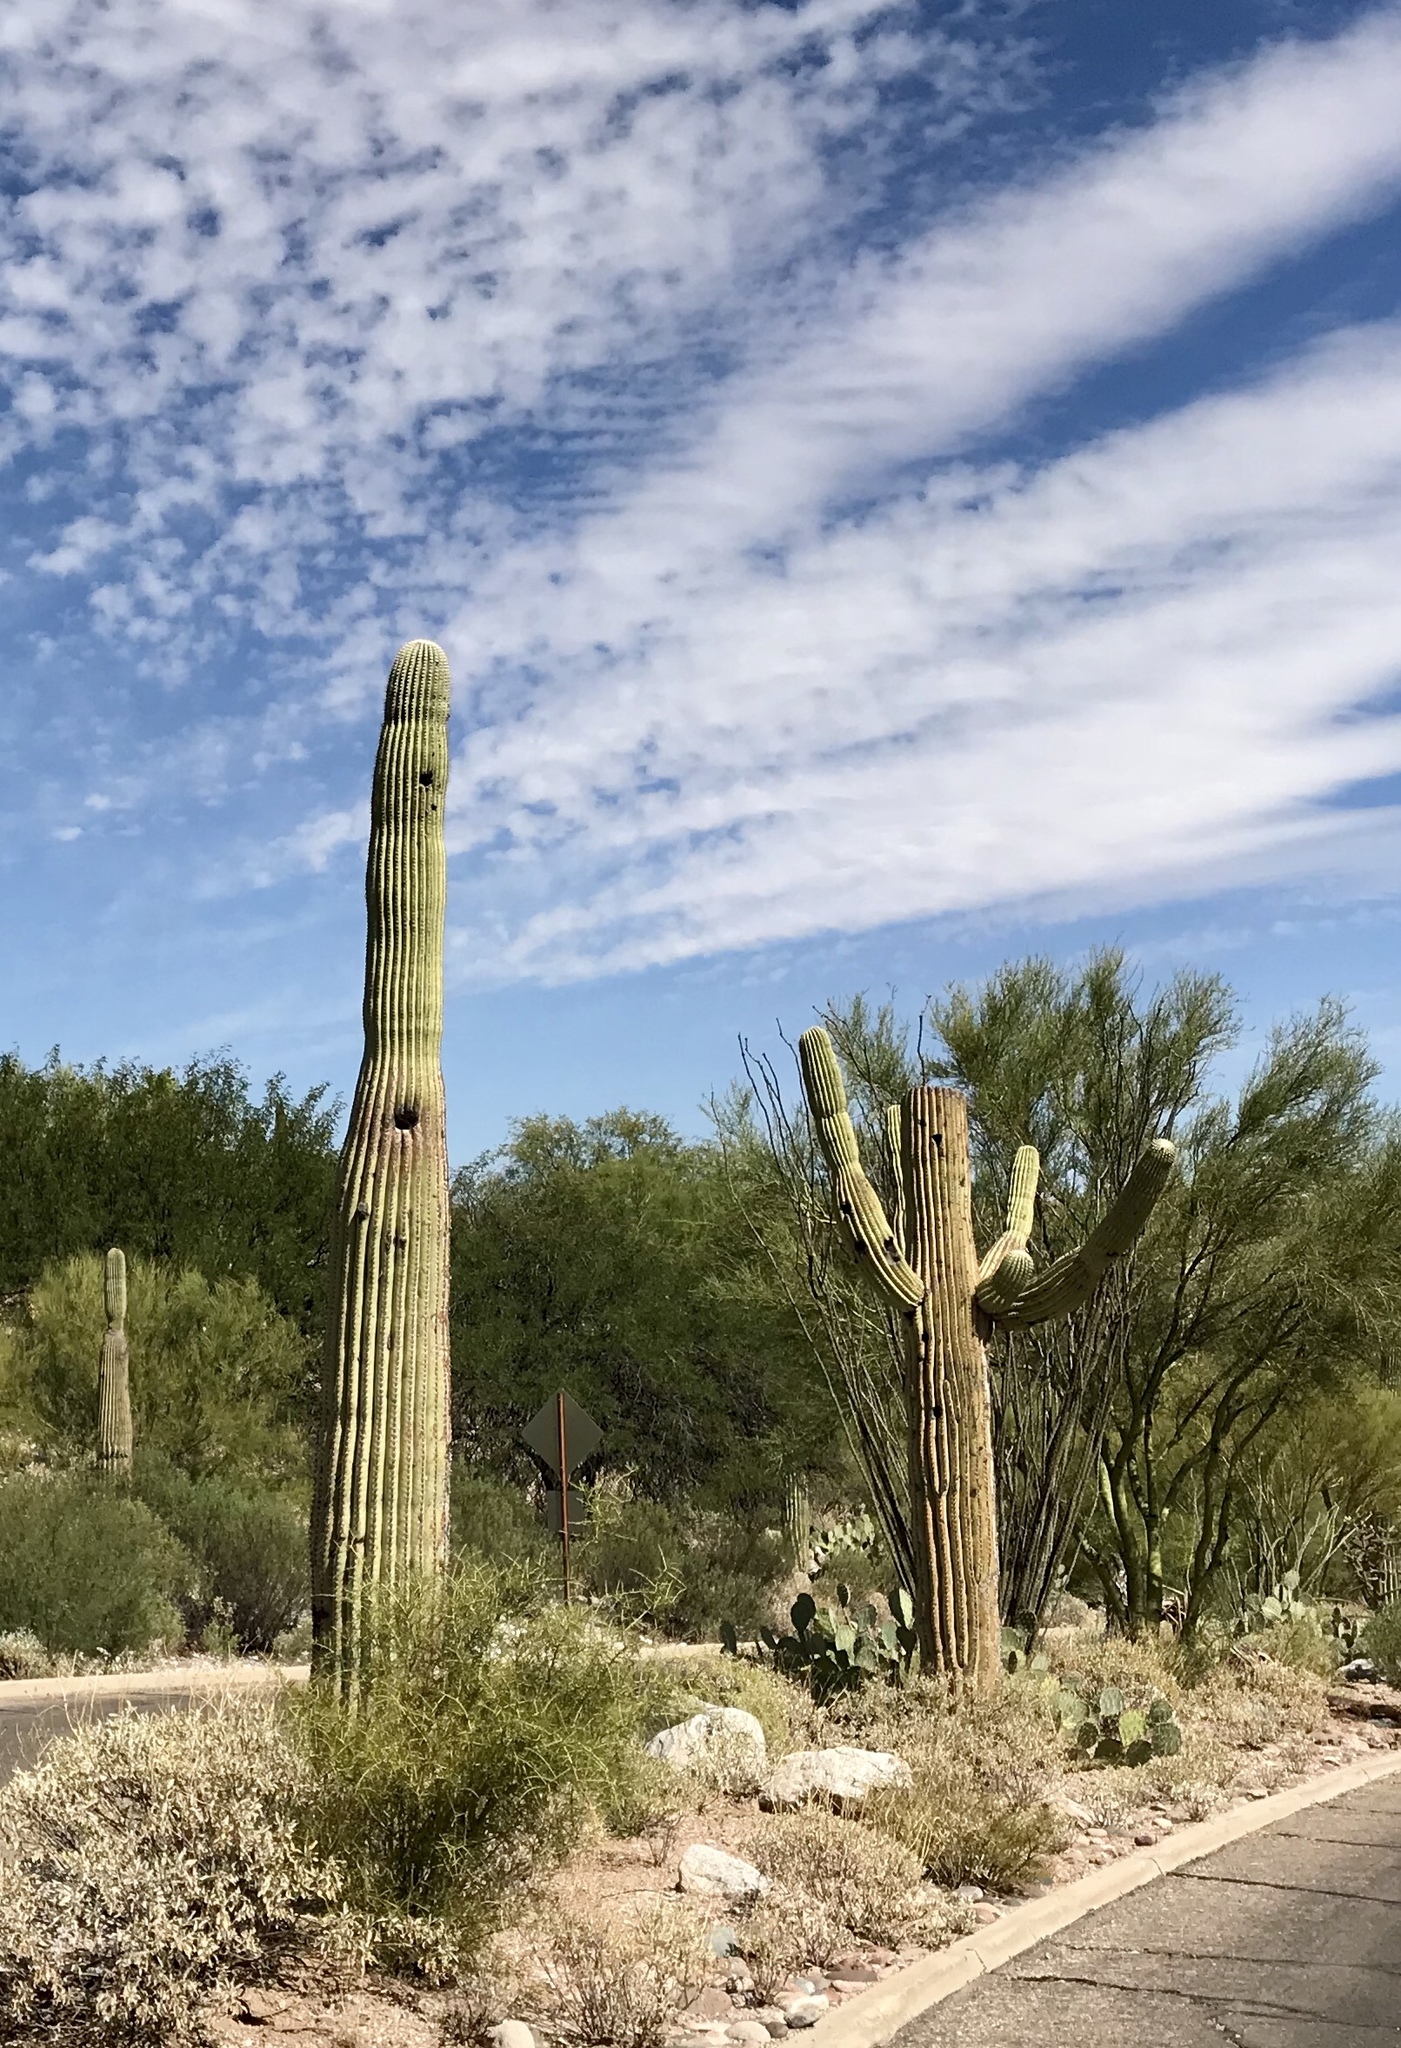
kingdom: Plantae
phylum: Tracheophyta
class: Magnoliopsida
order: Caryophyllales
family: Cactaceae
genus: Carnegiea
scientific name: Carnegiea gigantea
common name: Saguaro
